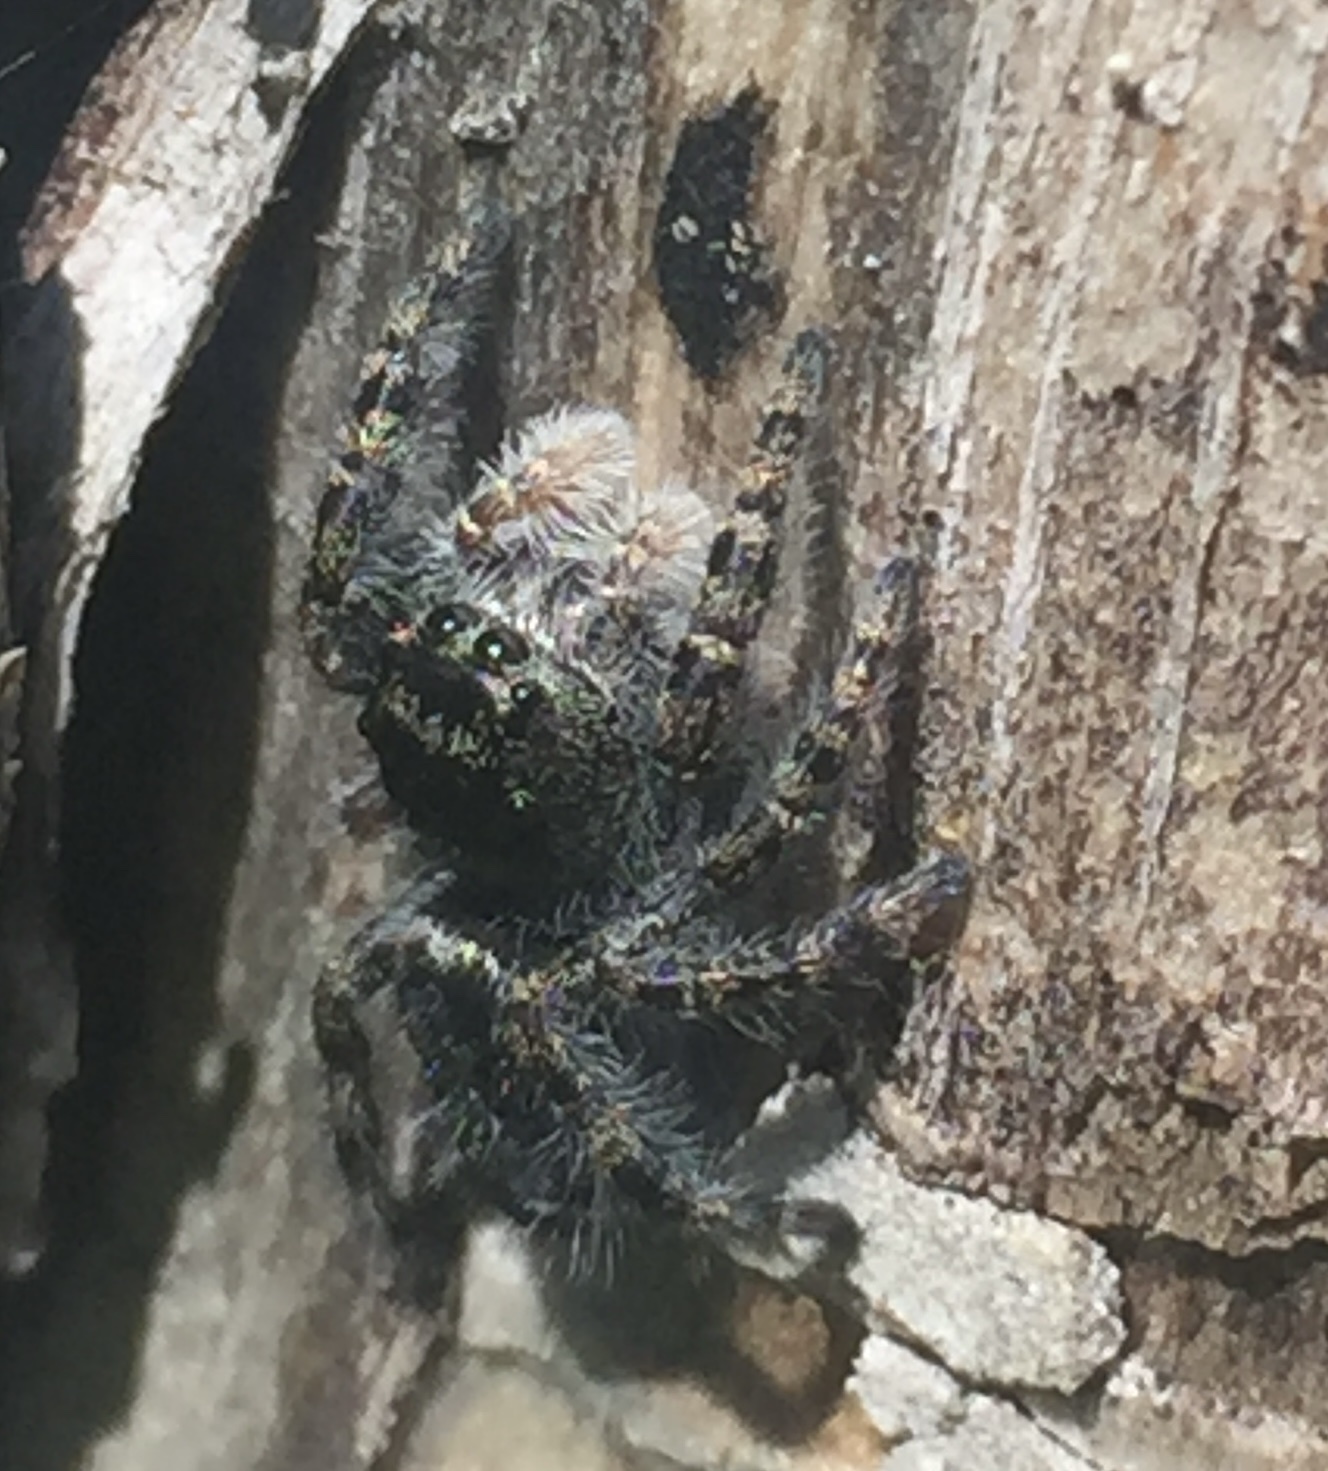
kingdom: Animalia
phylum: Arthropoda
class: Arachnida
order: Araneae
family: Salticidae
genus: Phidippus
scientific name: Phidippus borealis
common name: Boreal tufted jumping spider
